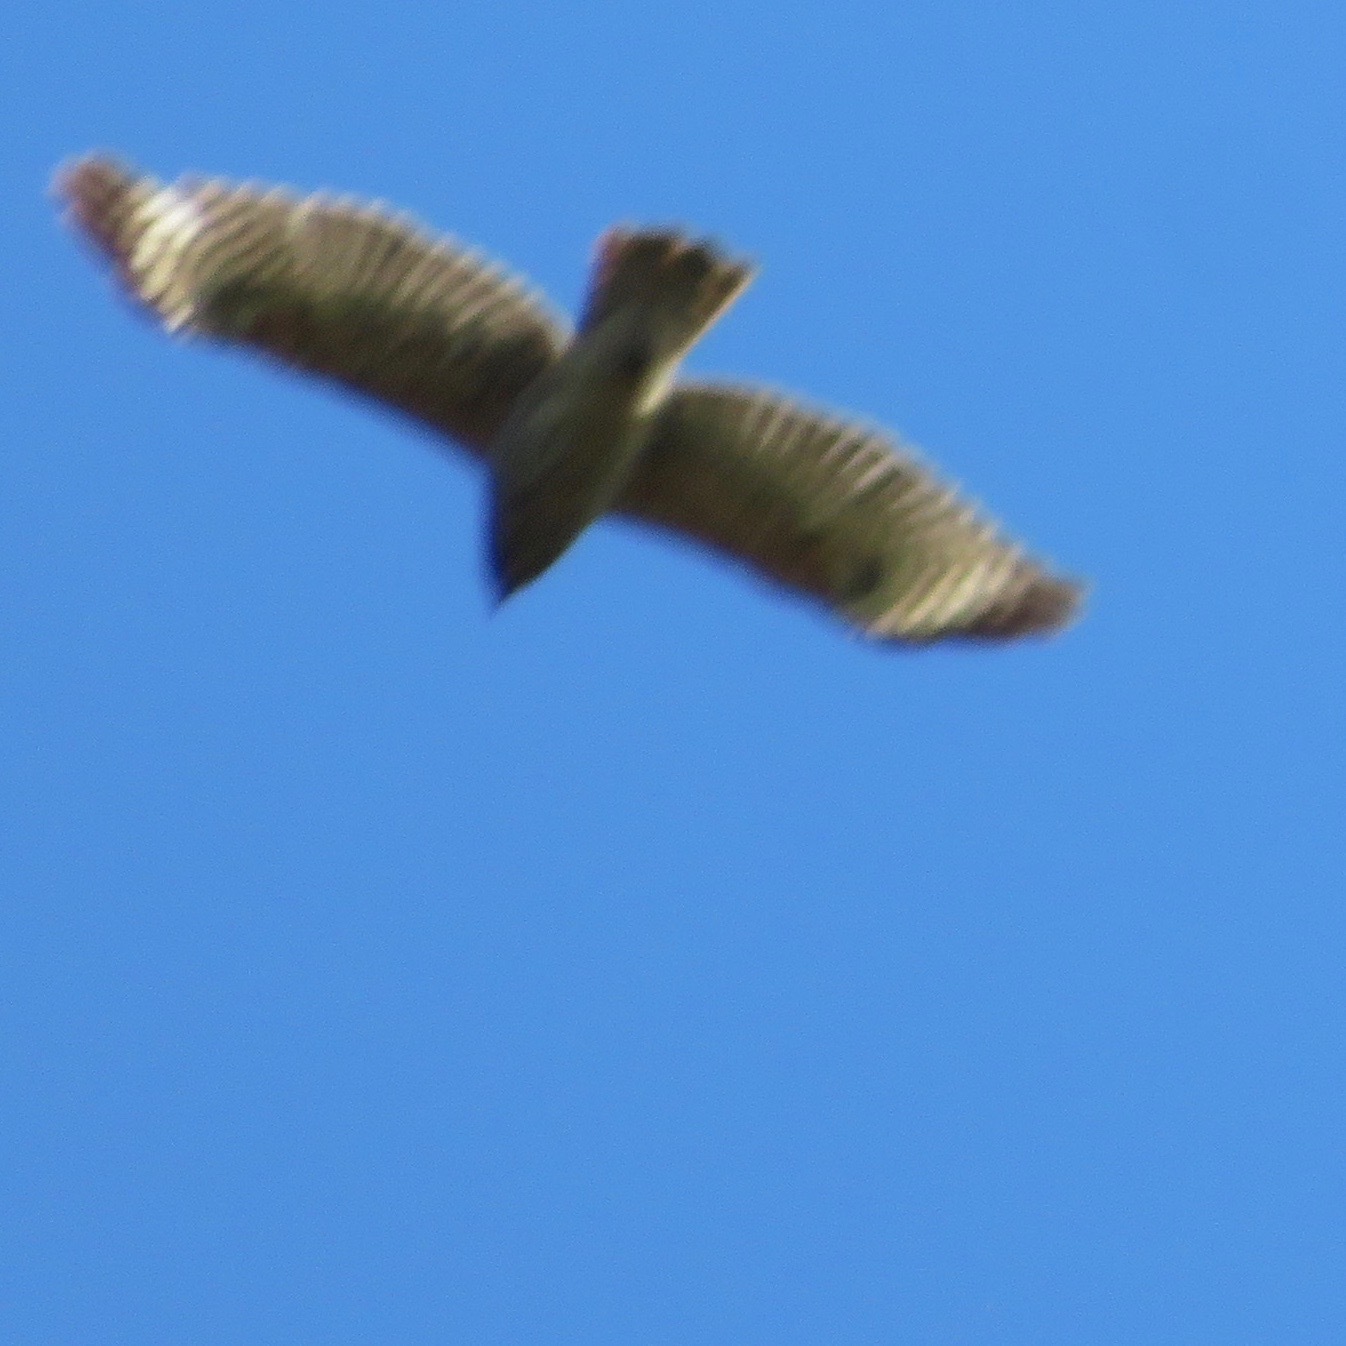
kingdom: Animalia
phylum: Chordata
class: Aves
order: Accipitriformes
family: Accipitridae
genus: Buteo
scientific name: Buteo lineatus
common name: Red-shouldered hawk
